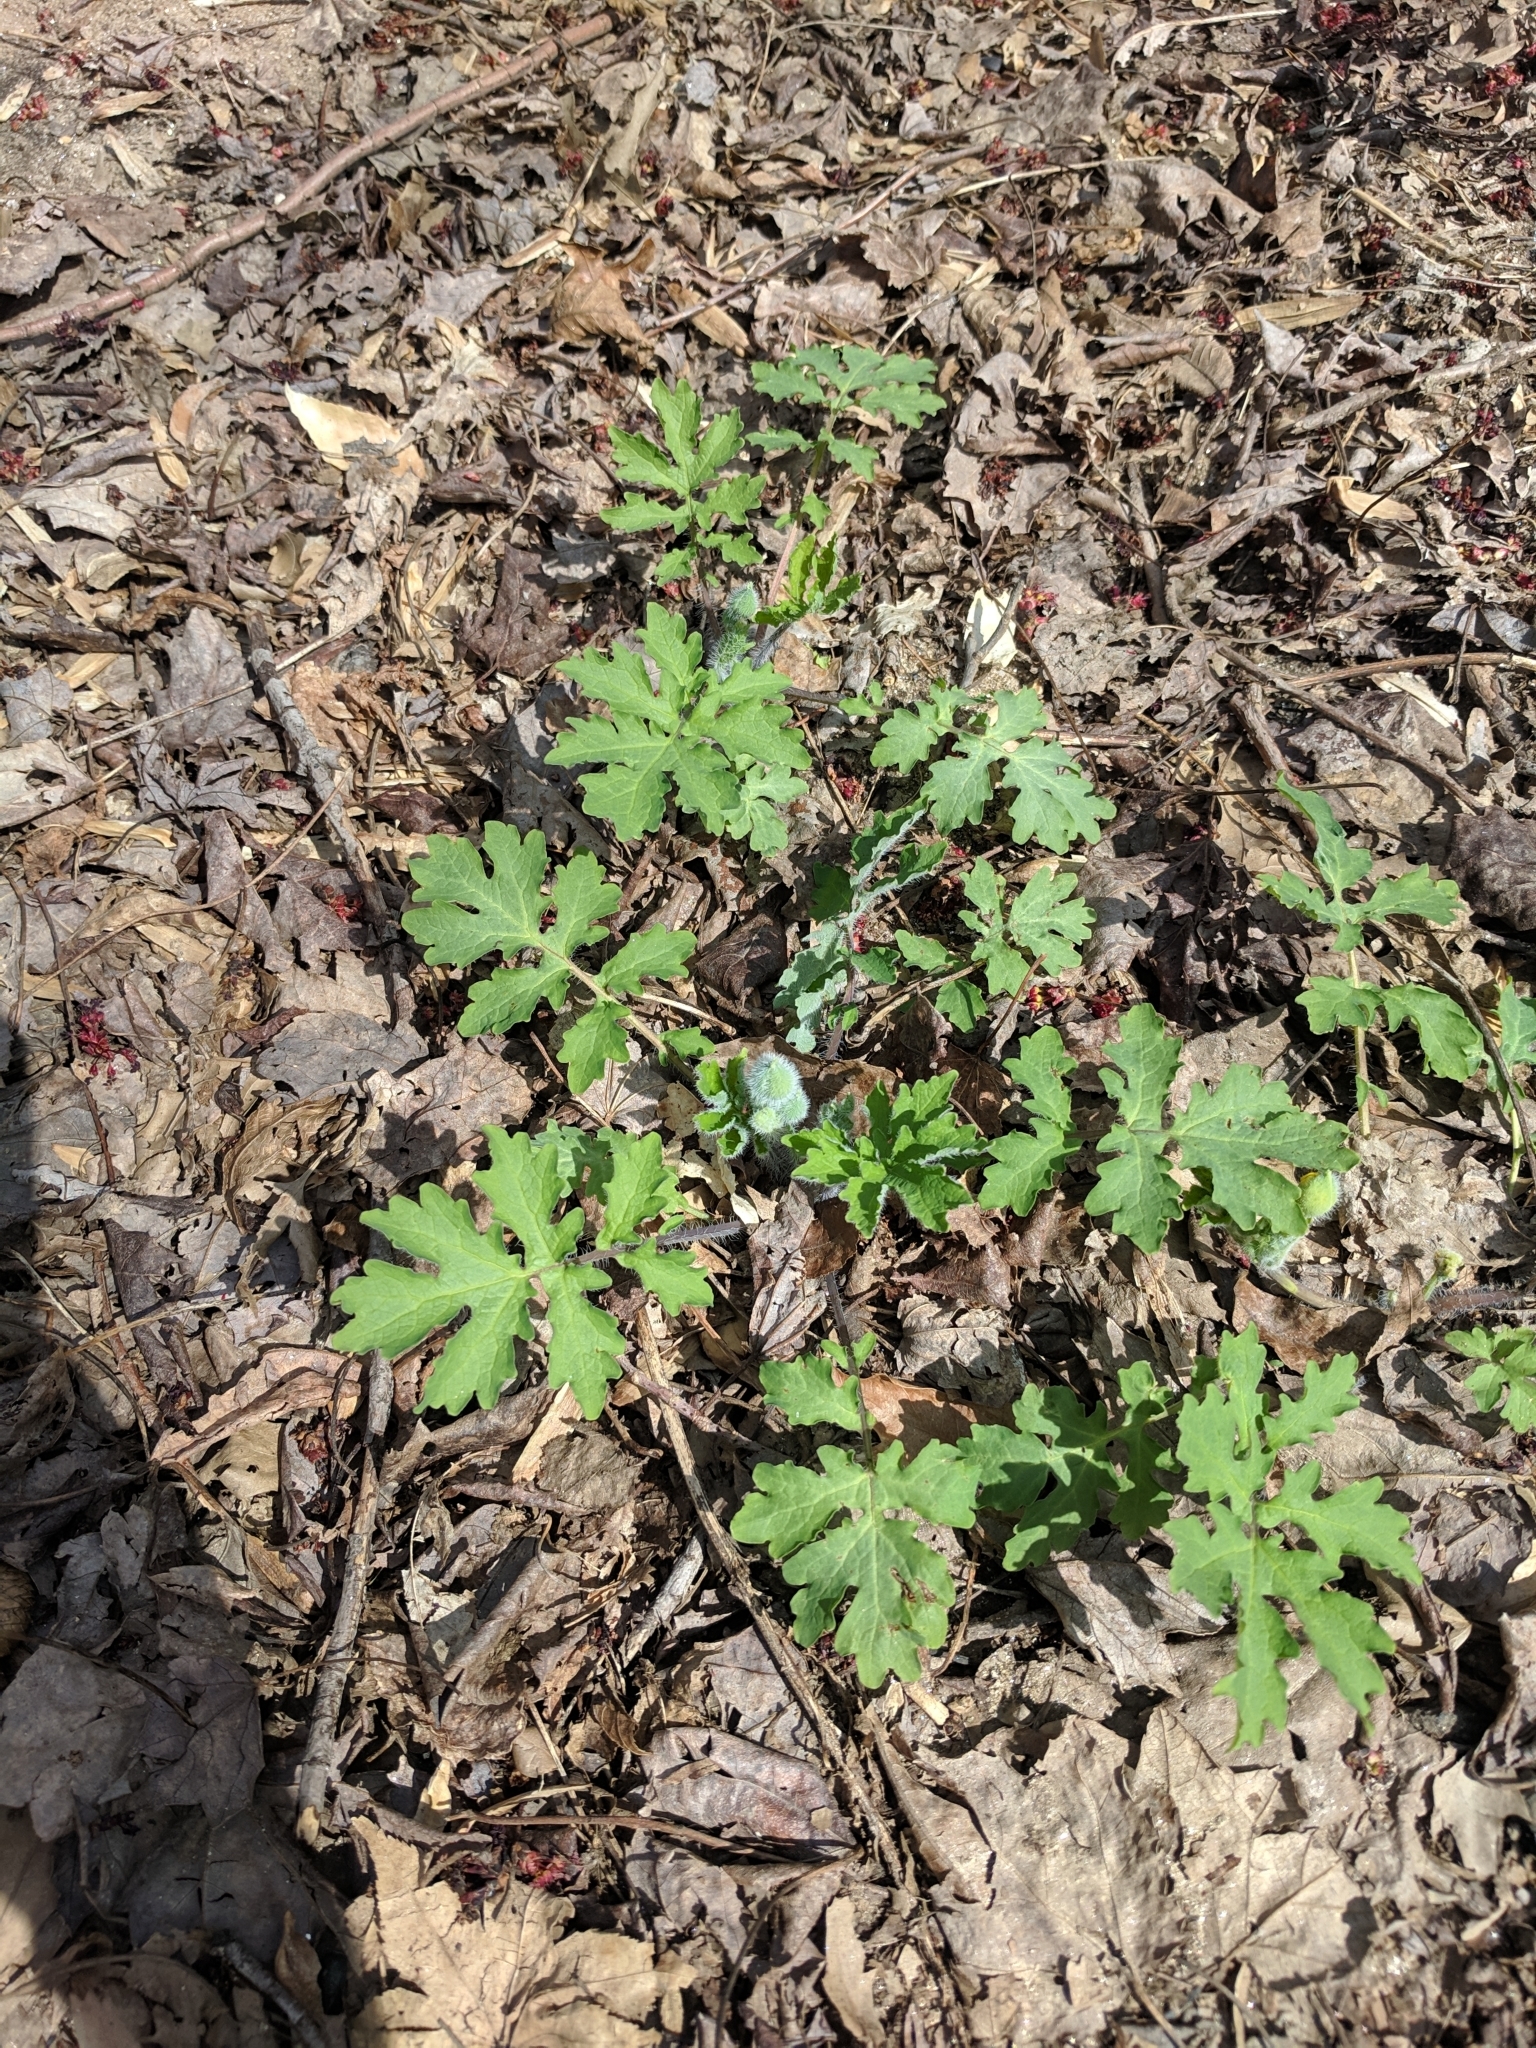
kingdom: Plantae
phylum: Tracheophyta
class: Magnoliopsida
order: Ranunculales
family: Papaveraceae
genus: Stylophorum
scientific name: Stylophorum diphyllum
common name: Celandine poppy
